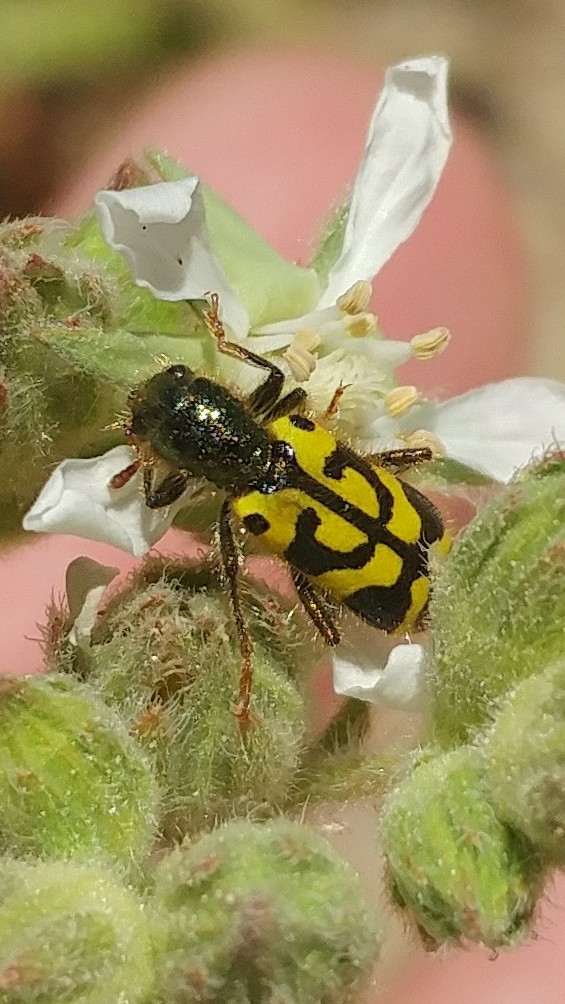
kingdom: Animalia
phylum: Arthropoda
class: Insecta
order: Coleoptera
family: Cleridae
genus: Trichodes
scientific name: Trichodes ornatus
